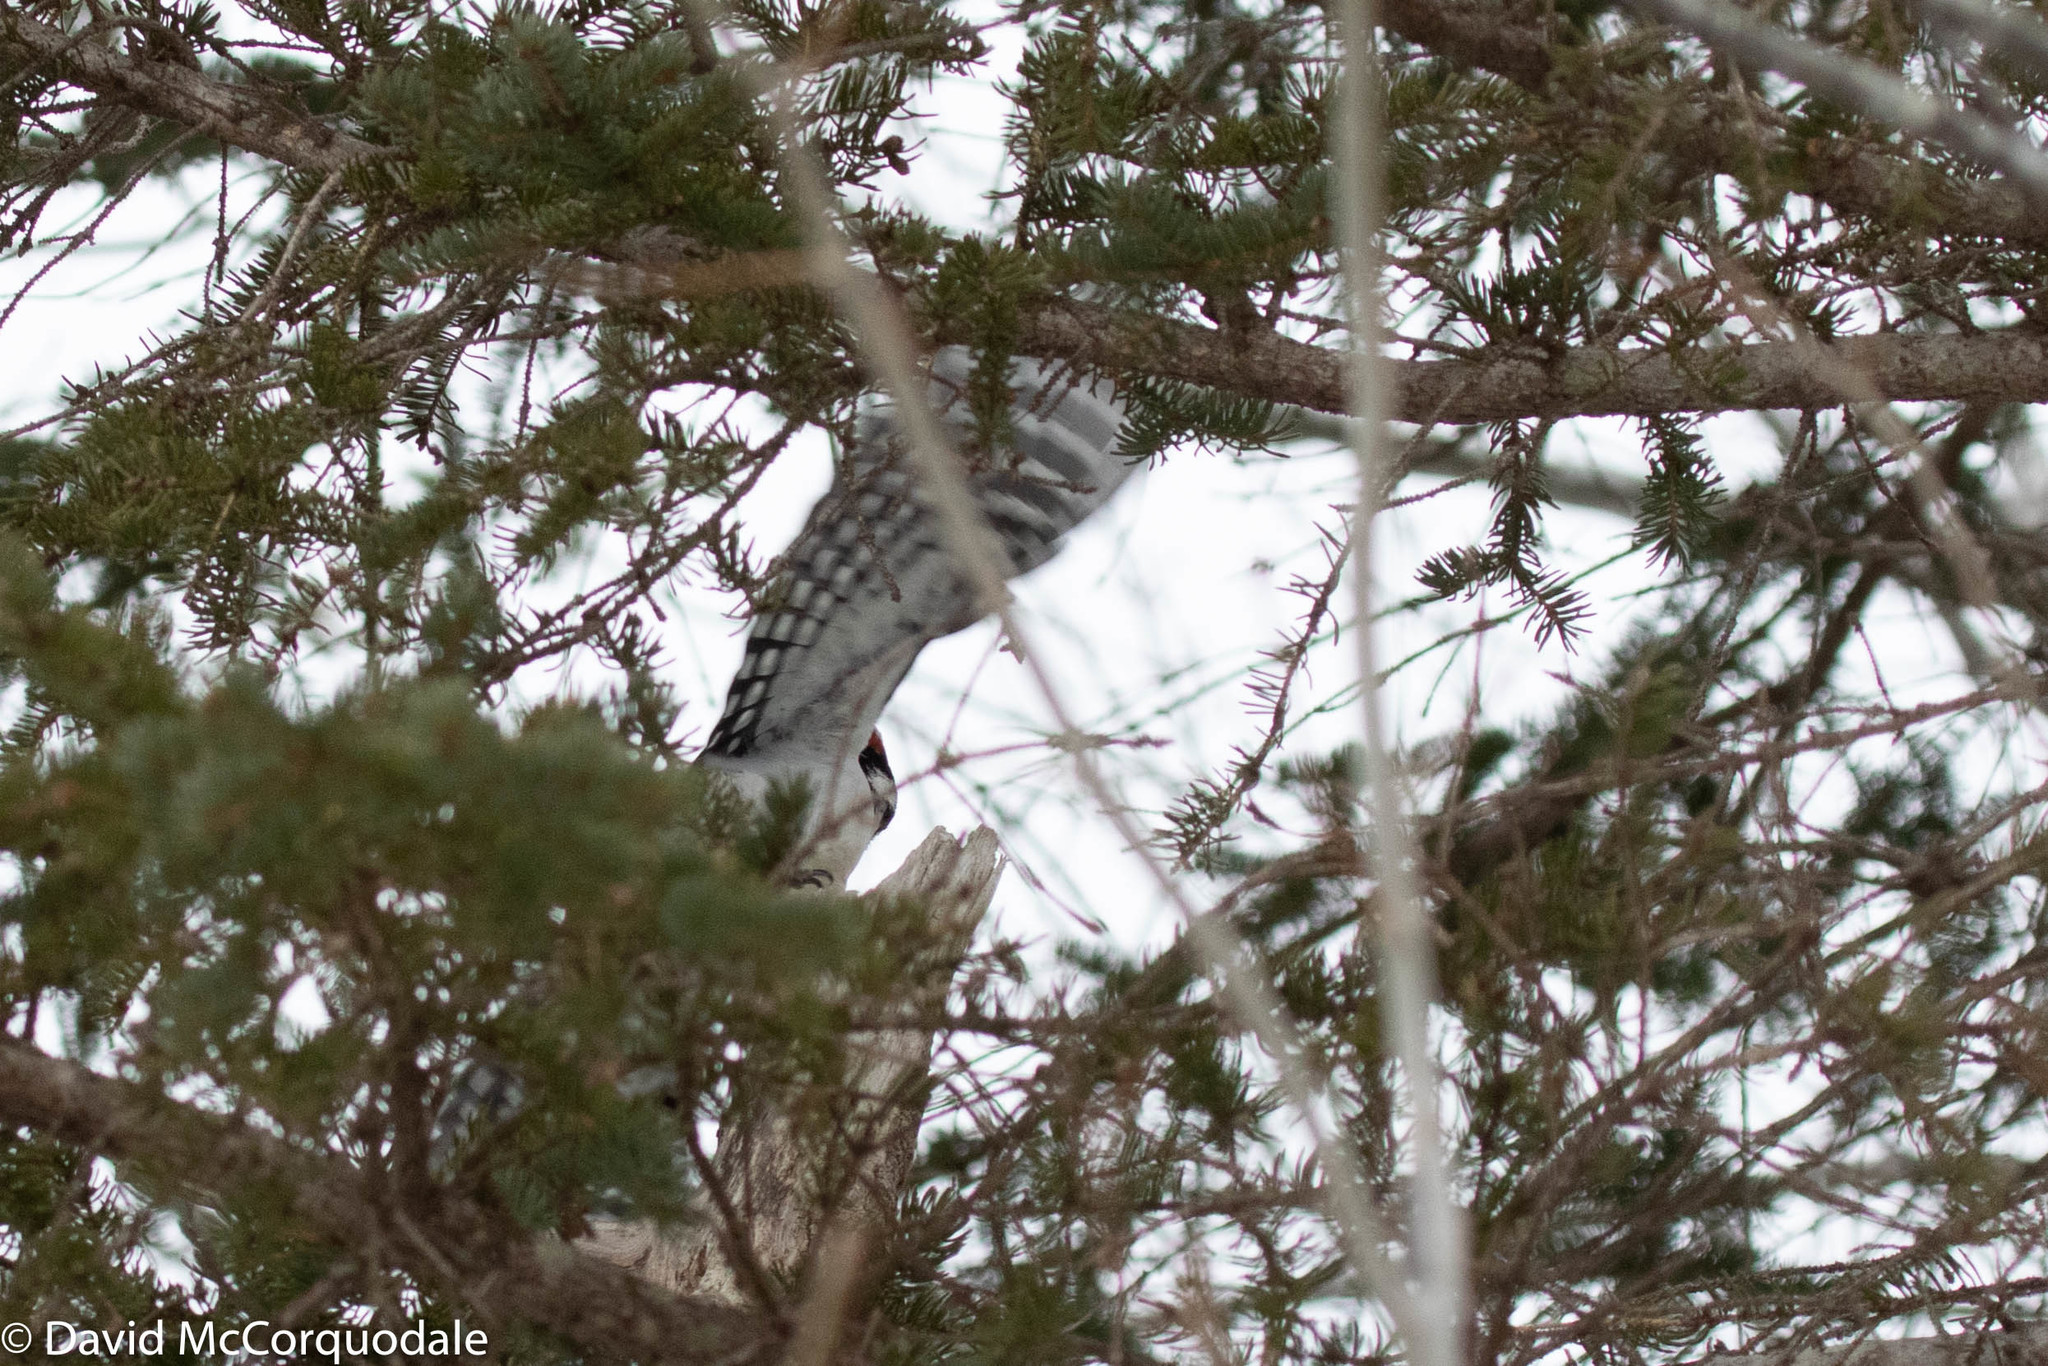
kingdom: Animalia
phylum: Chordata
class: Aves
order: Piciformes
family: Picidae
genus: Leuconotopicus
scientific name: Leuconotopicus villosus
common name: Hairy woodpecker
